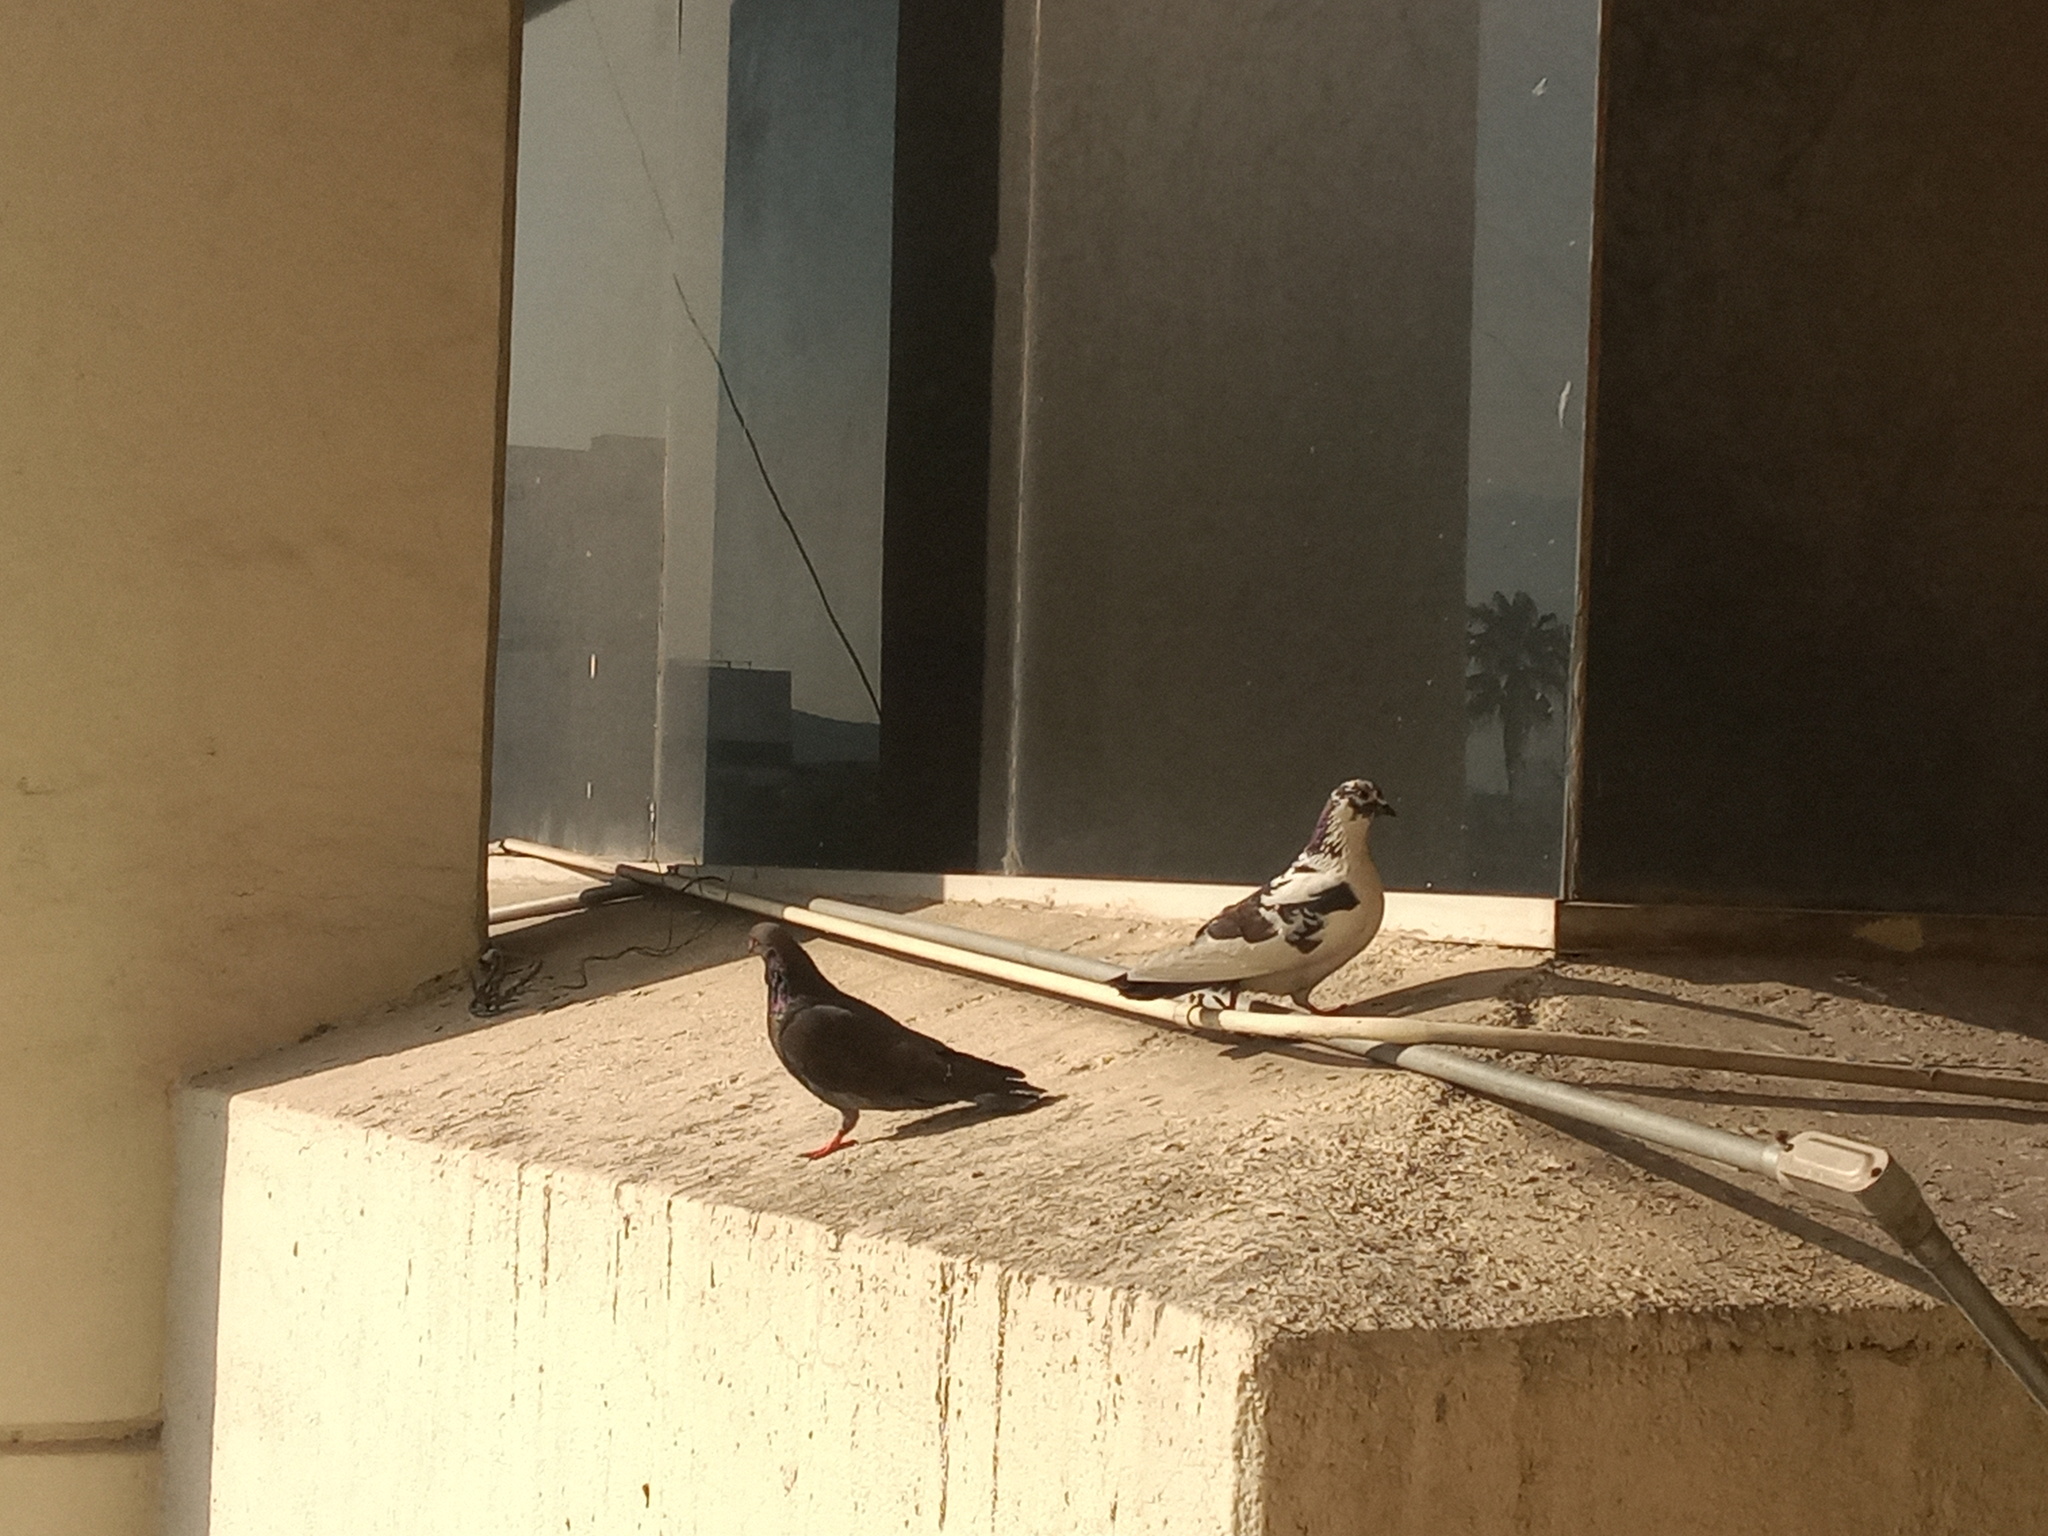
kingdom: Animalia
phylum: Chordata
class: Aves
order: Columbiformes
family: Columbidae
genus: Columba
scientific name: Columba livia
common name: Rock pigeon
